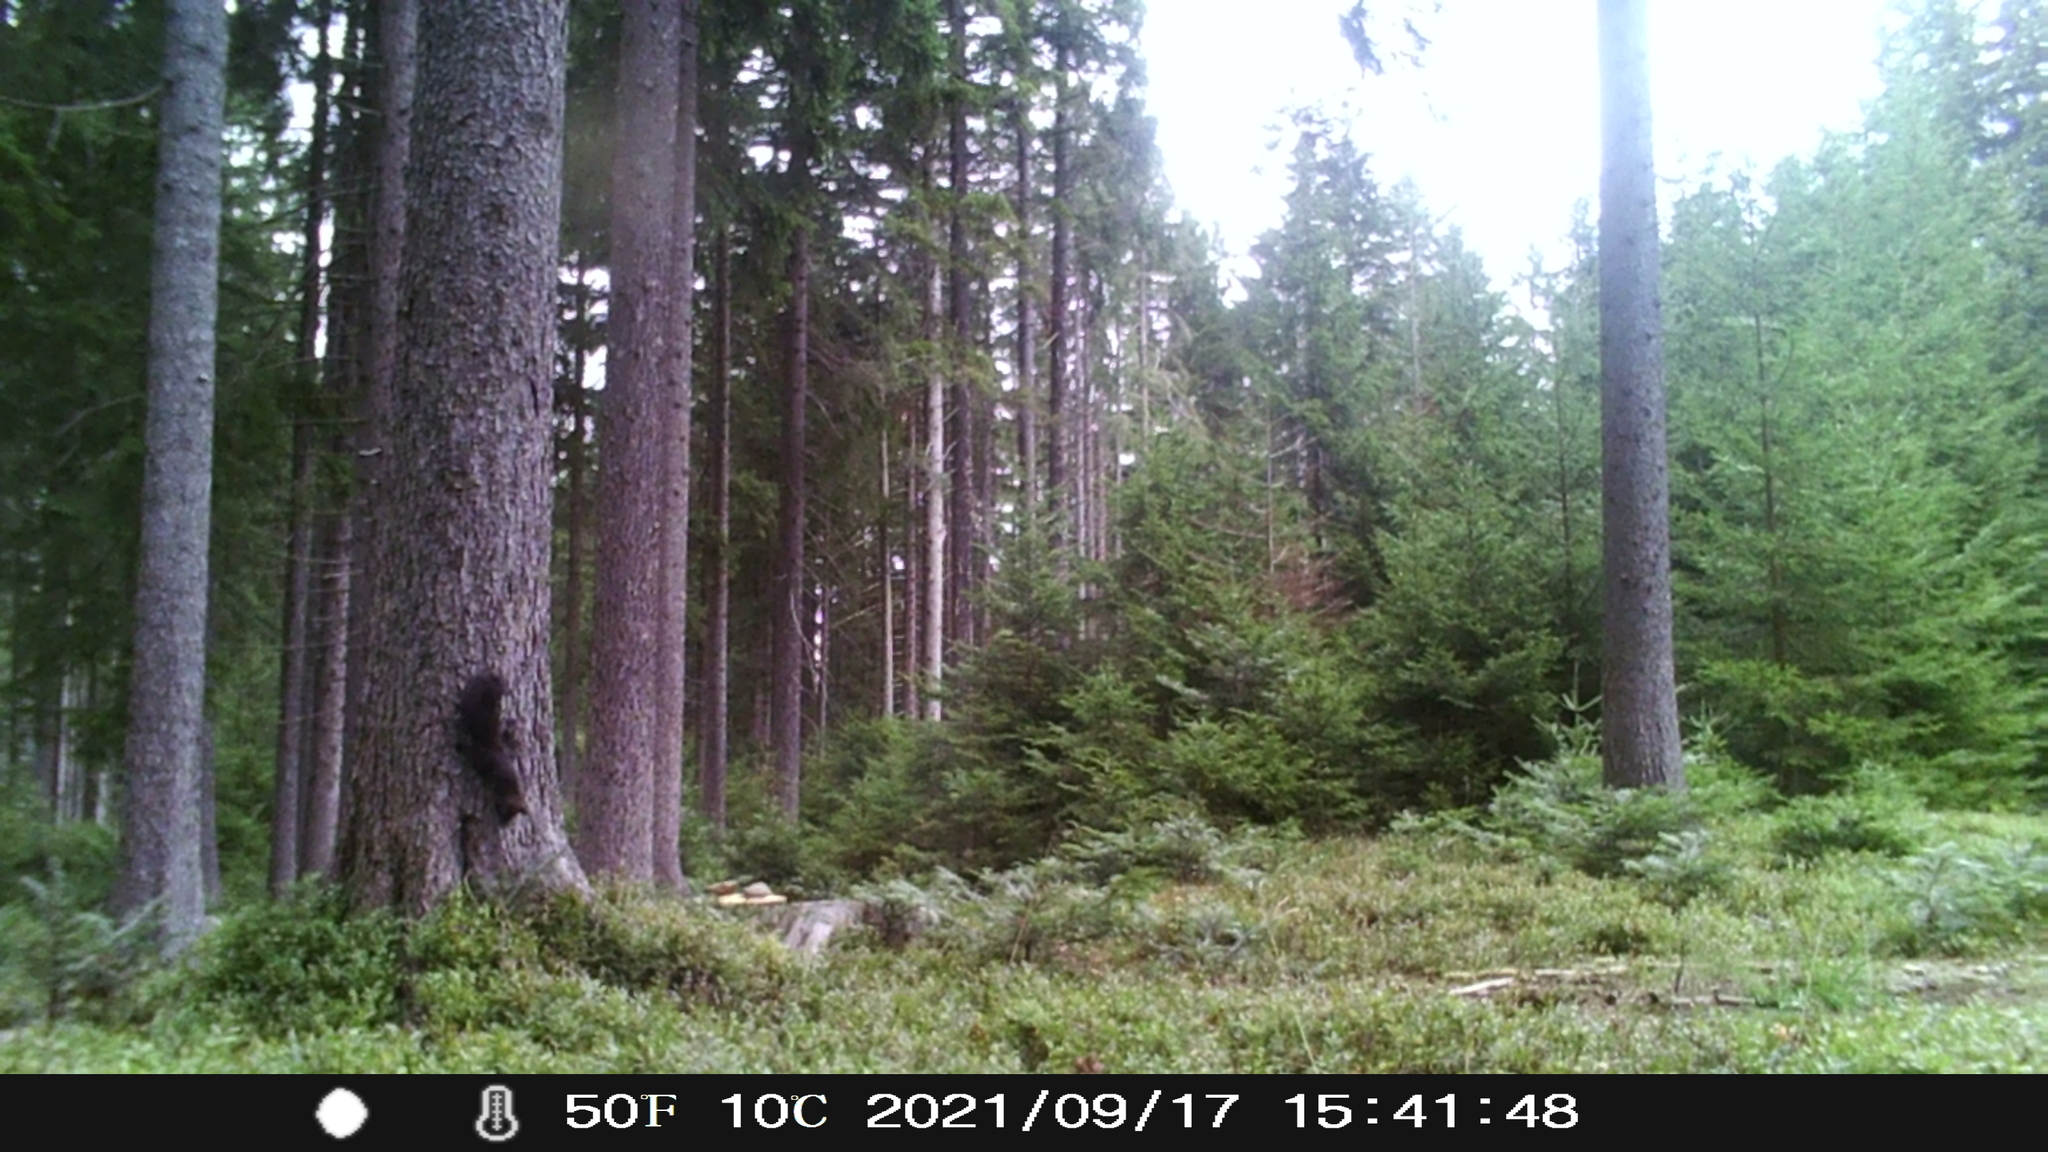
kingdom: Animalia
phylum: Chordata
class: Mammalia
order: Rodentia
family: Sciuridae
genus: Sciurus
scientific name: Sciurus vulgaris
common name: Eurasian red squirrel
